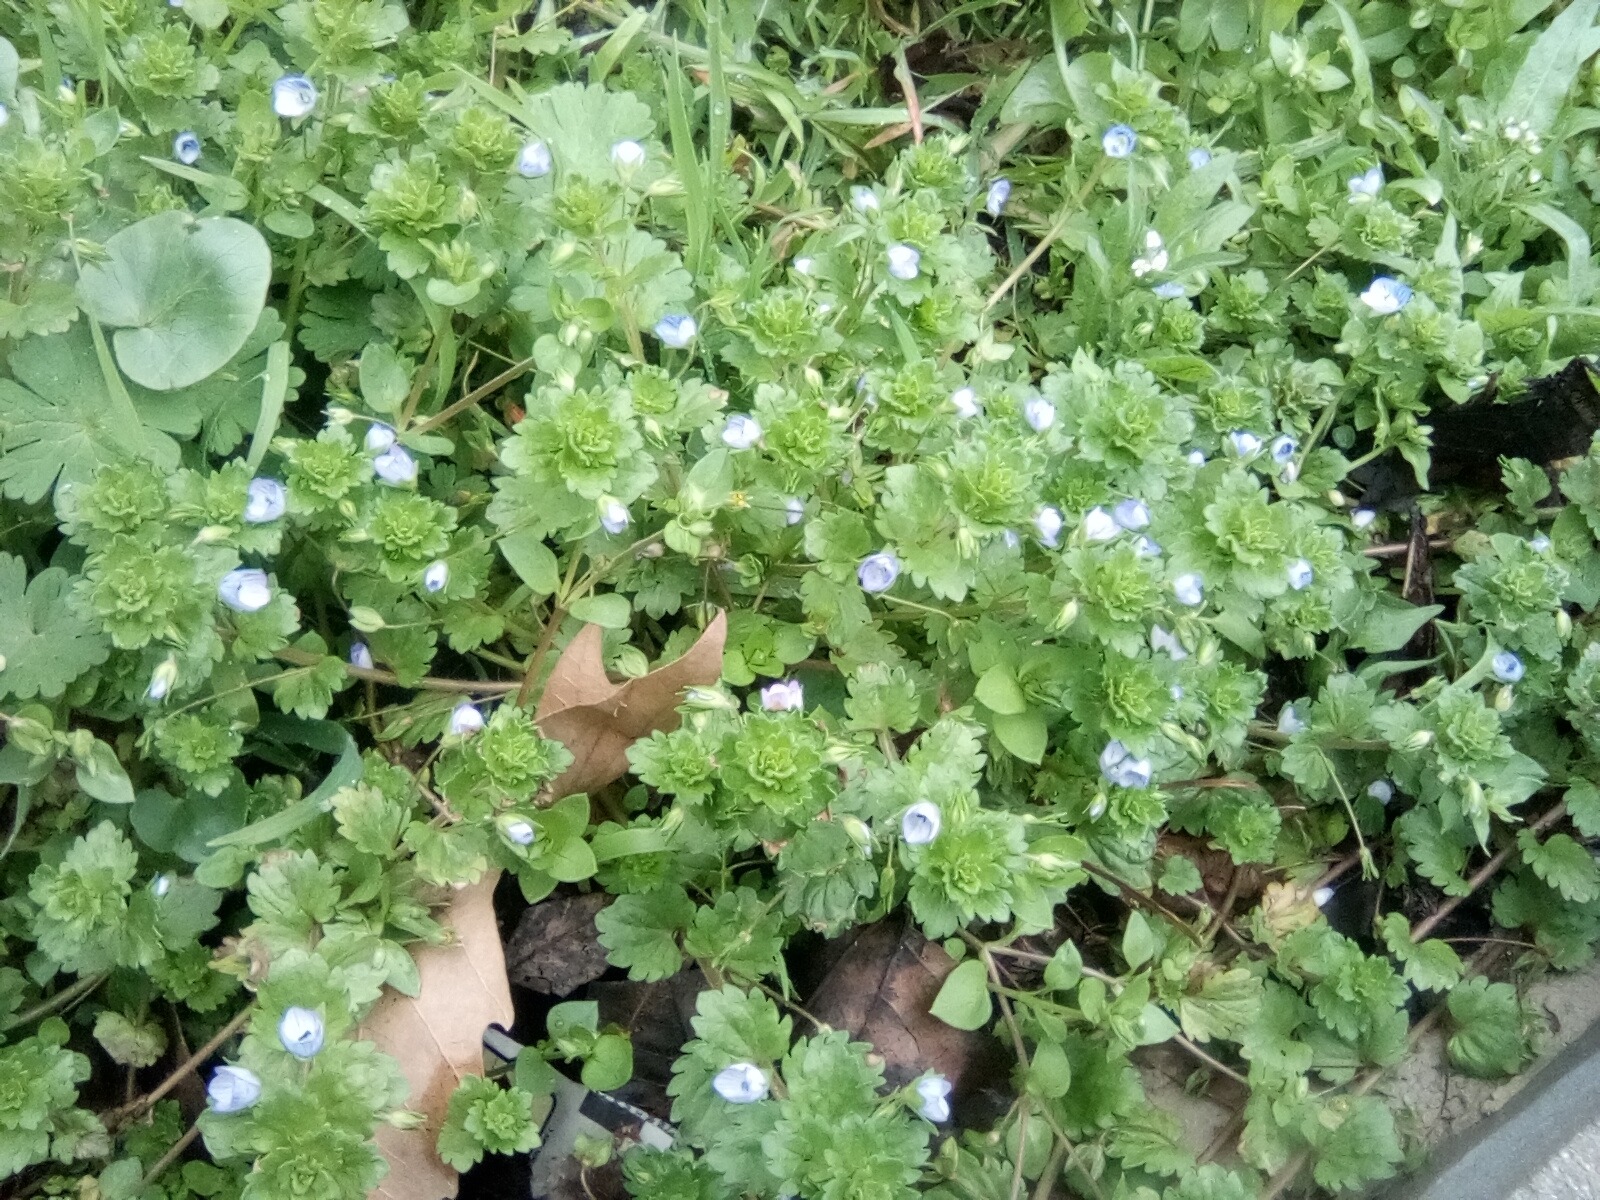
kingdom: Plantae
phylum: Tracheophyta
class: Magnoliopsida
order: Lamiales
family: Plantaginaceae
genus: Veronica
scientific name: Veronica persica
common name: Common field-speedwell
